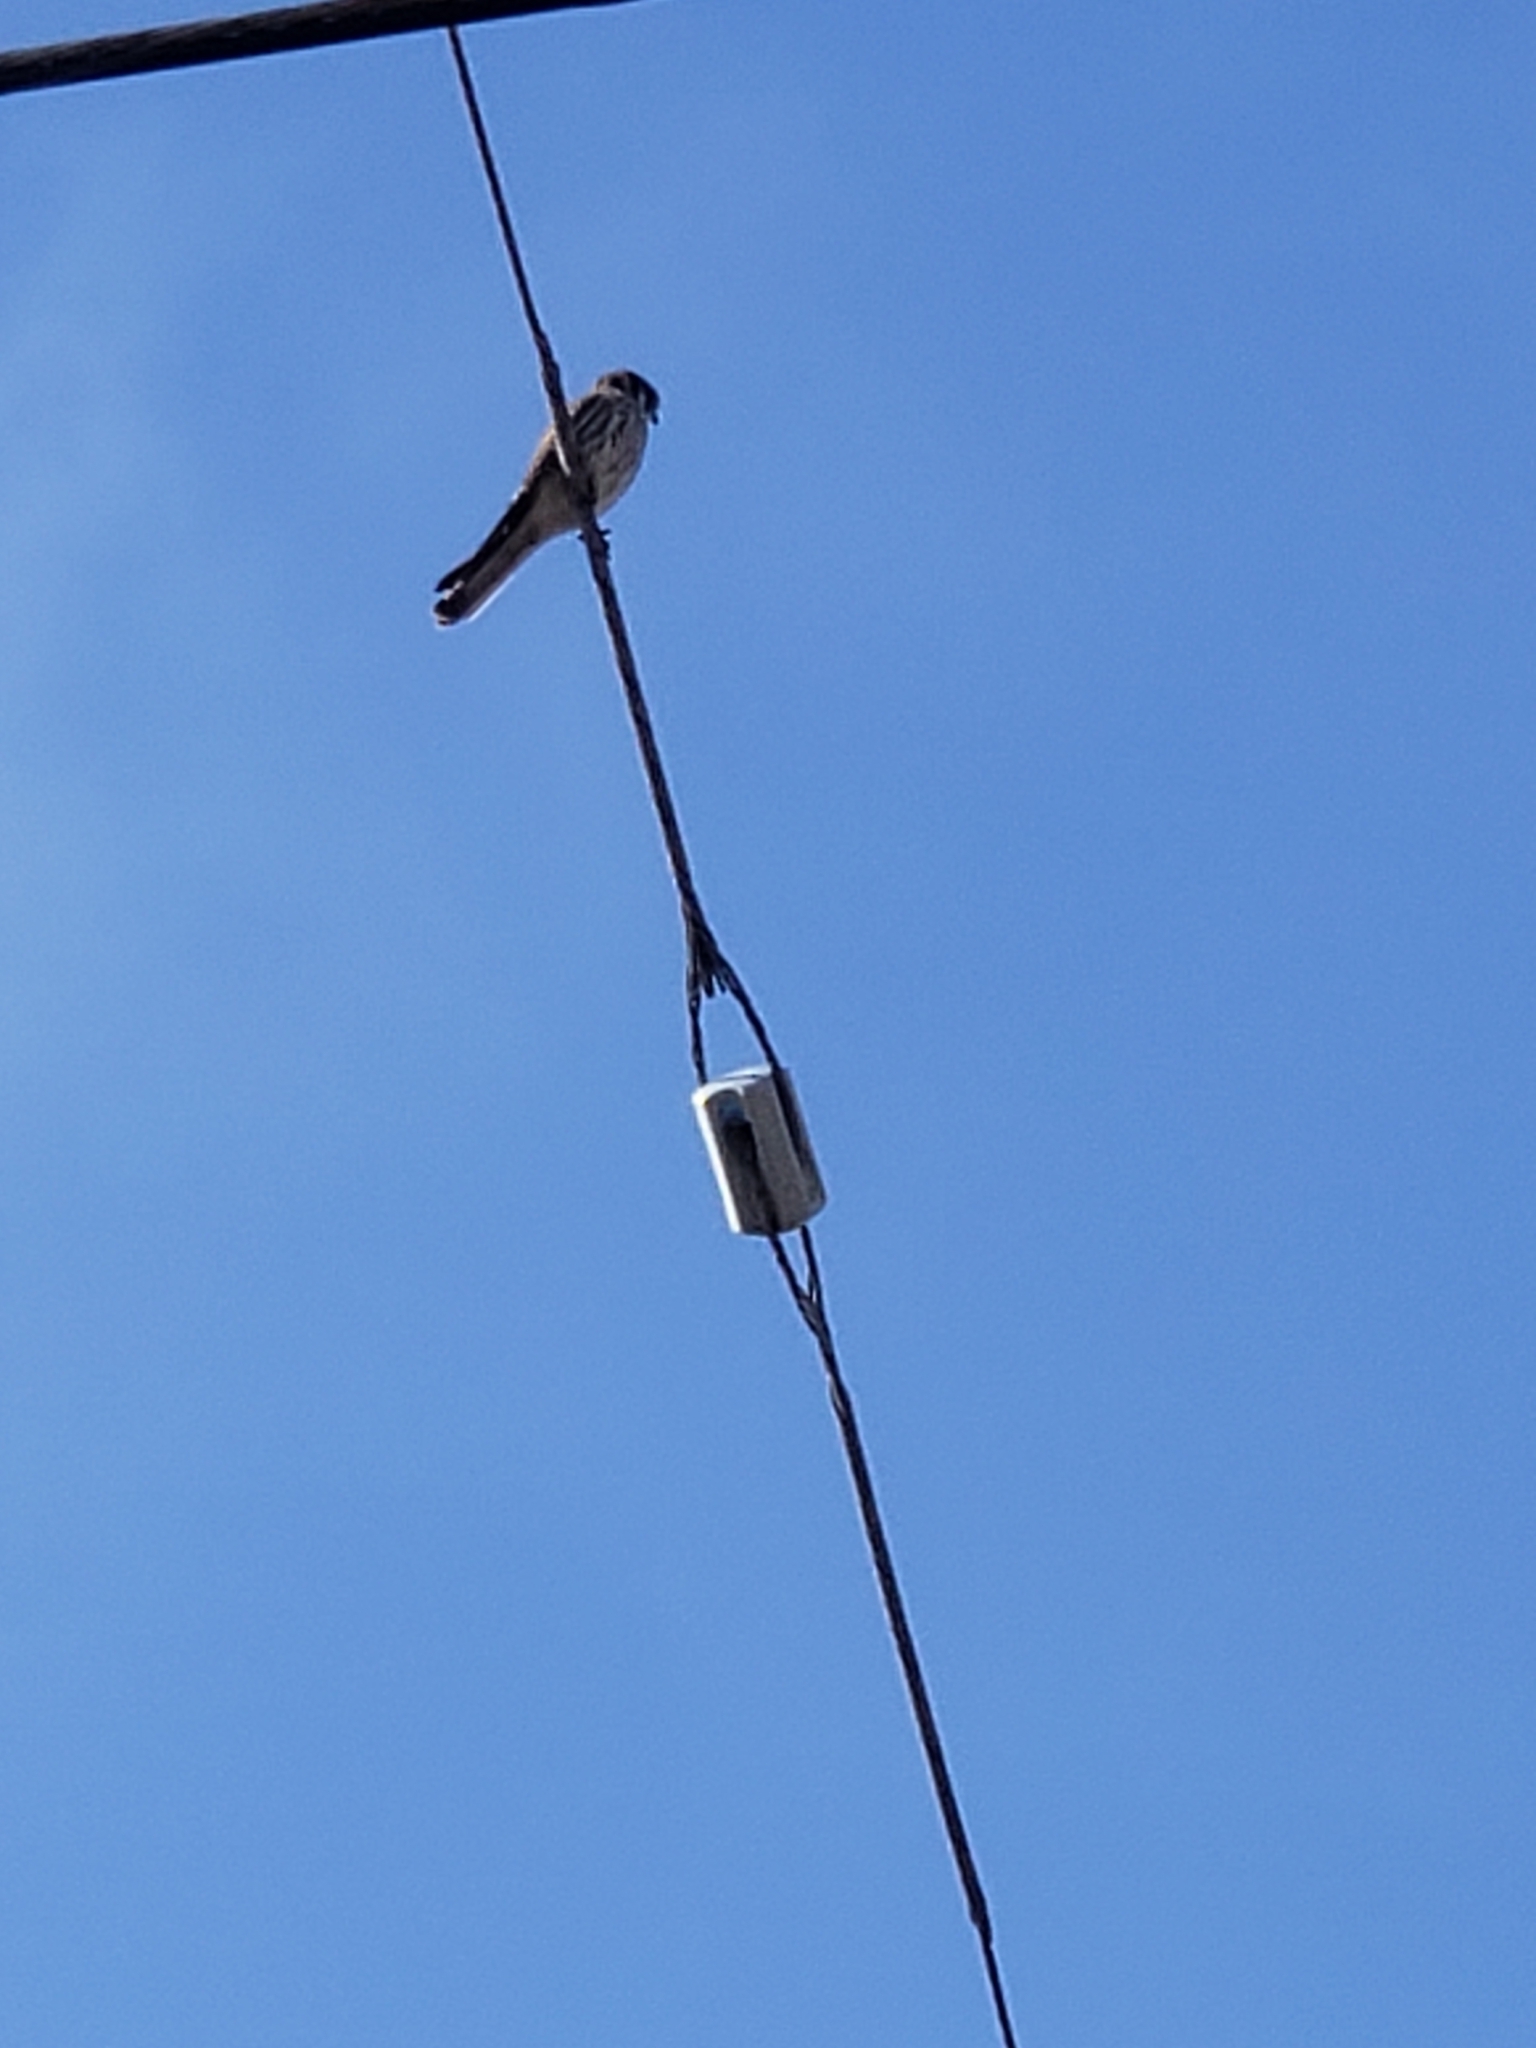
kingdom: Animalia
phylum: Chordata
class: Aves
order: Falconiformes
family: Falconidae
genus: Falco
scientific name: Falco sparverius
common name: American kestrel
